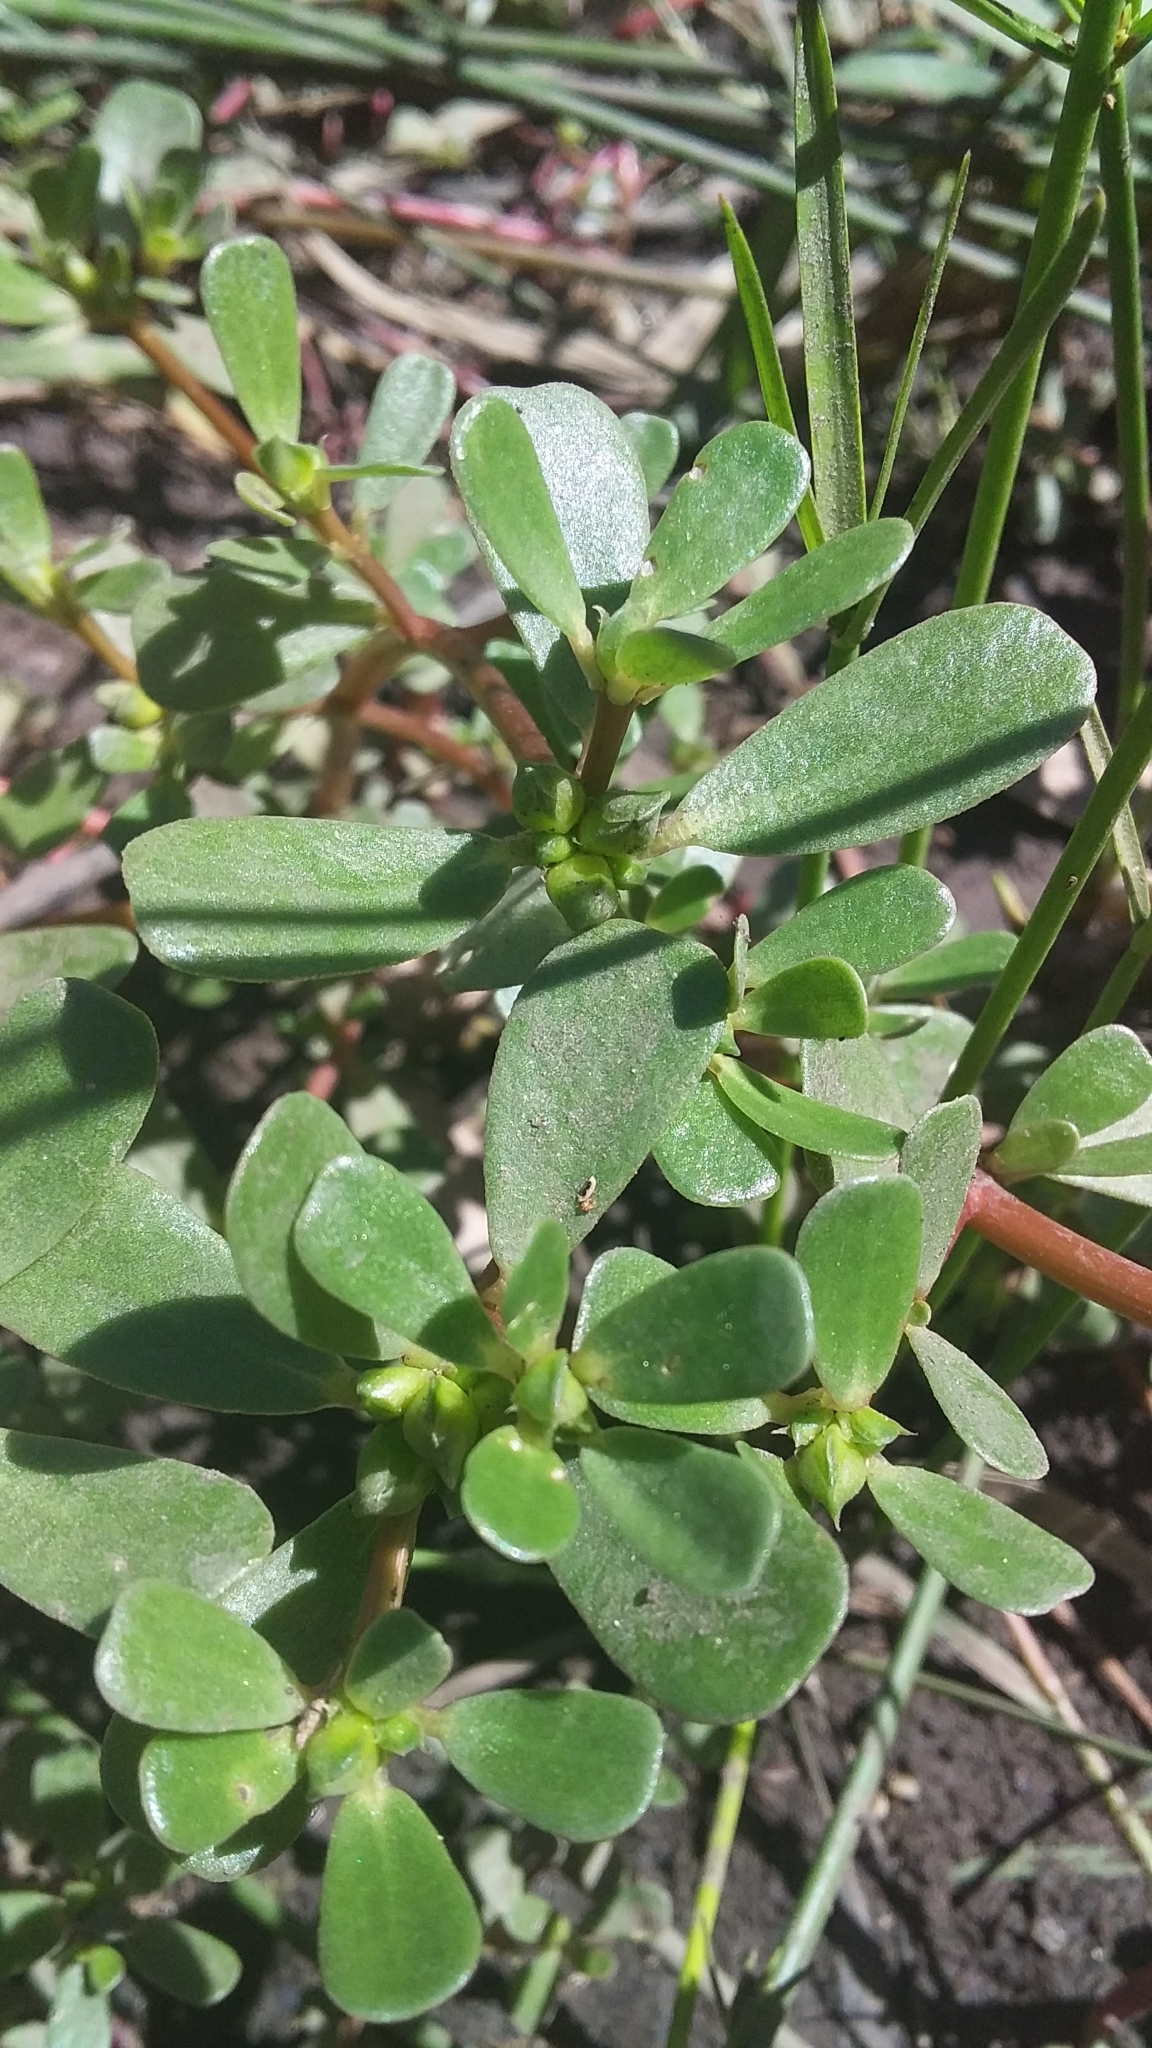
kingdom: Plantae
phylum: Tracheophyta
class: Magnoliopsida
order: Caryophyllales
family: Portulacaceae
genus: Portulaca
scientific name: Portulaca oleracea
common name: Common purslane
